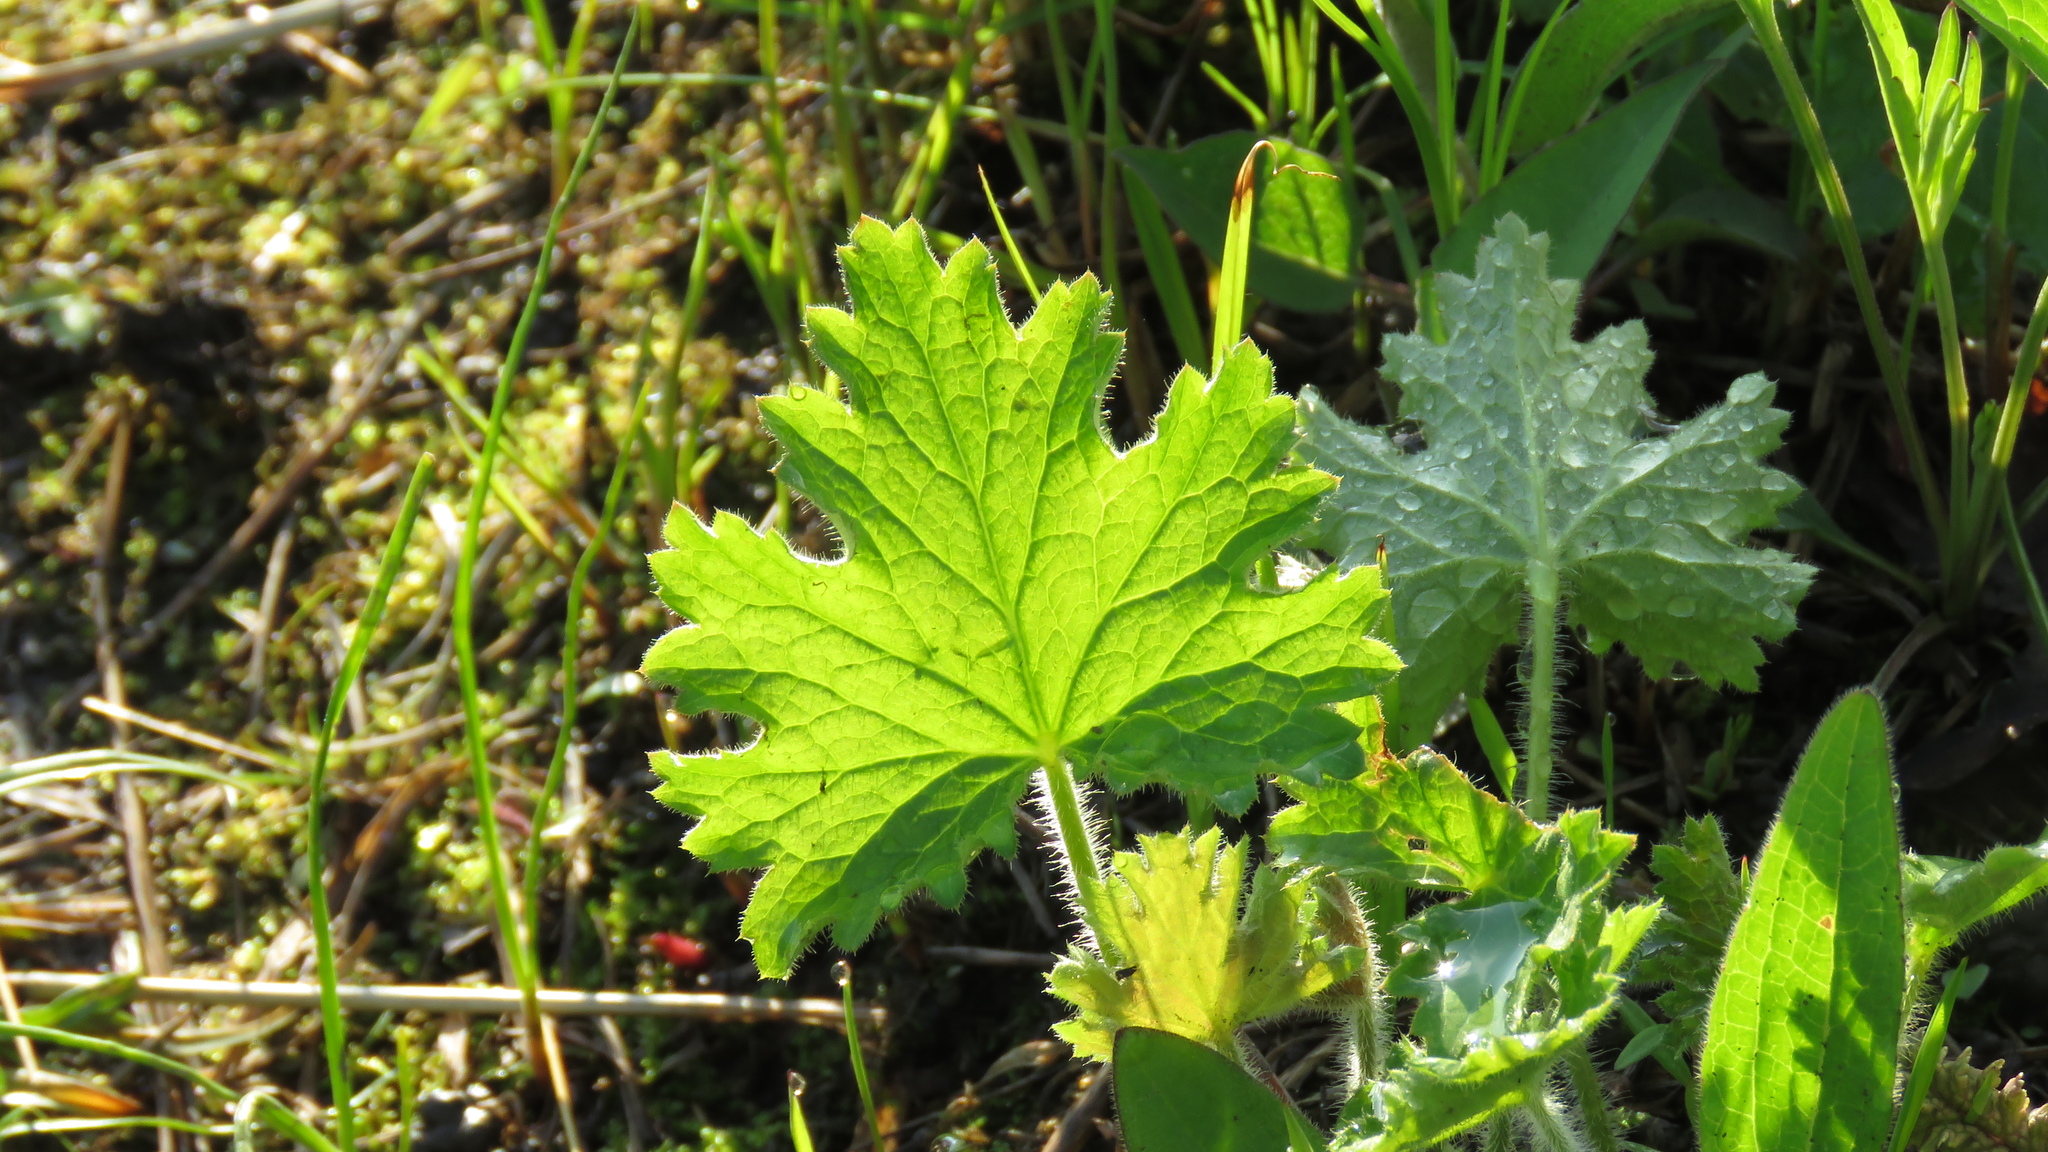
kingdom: Plantae
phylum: Tracheophyta
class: Magnoliopsida
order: Saxifragales
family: Saxifragaceae
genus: Heuchera
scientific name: Heuchera richardsonii
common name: Richardson's alumroot
